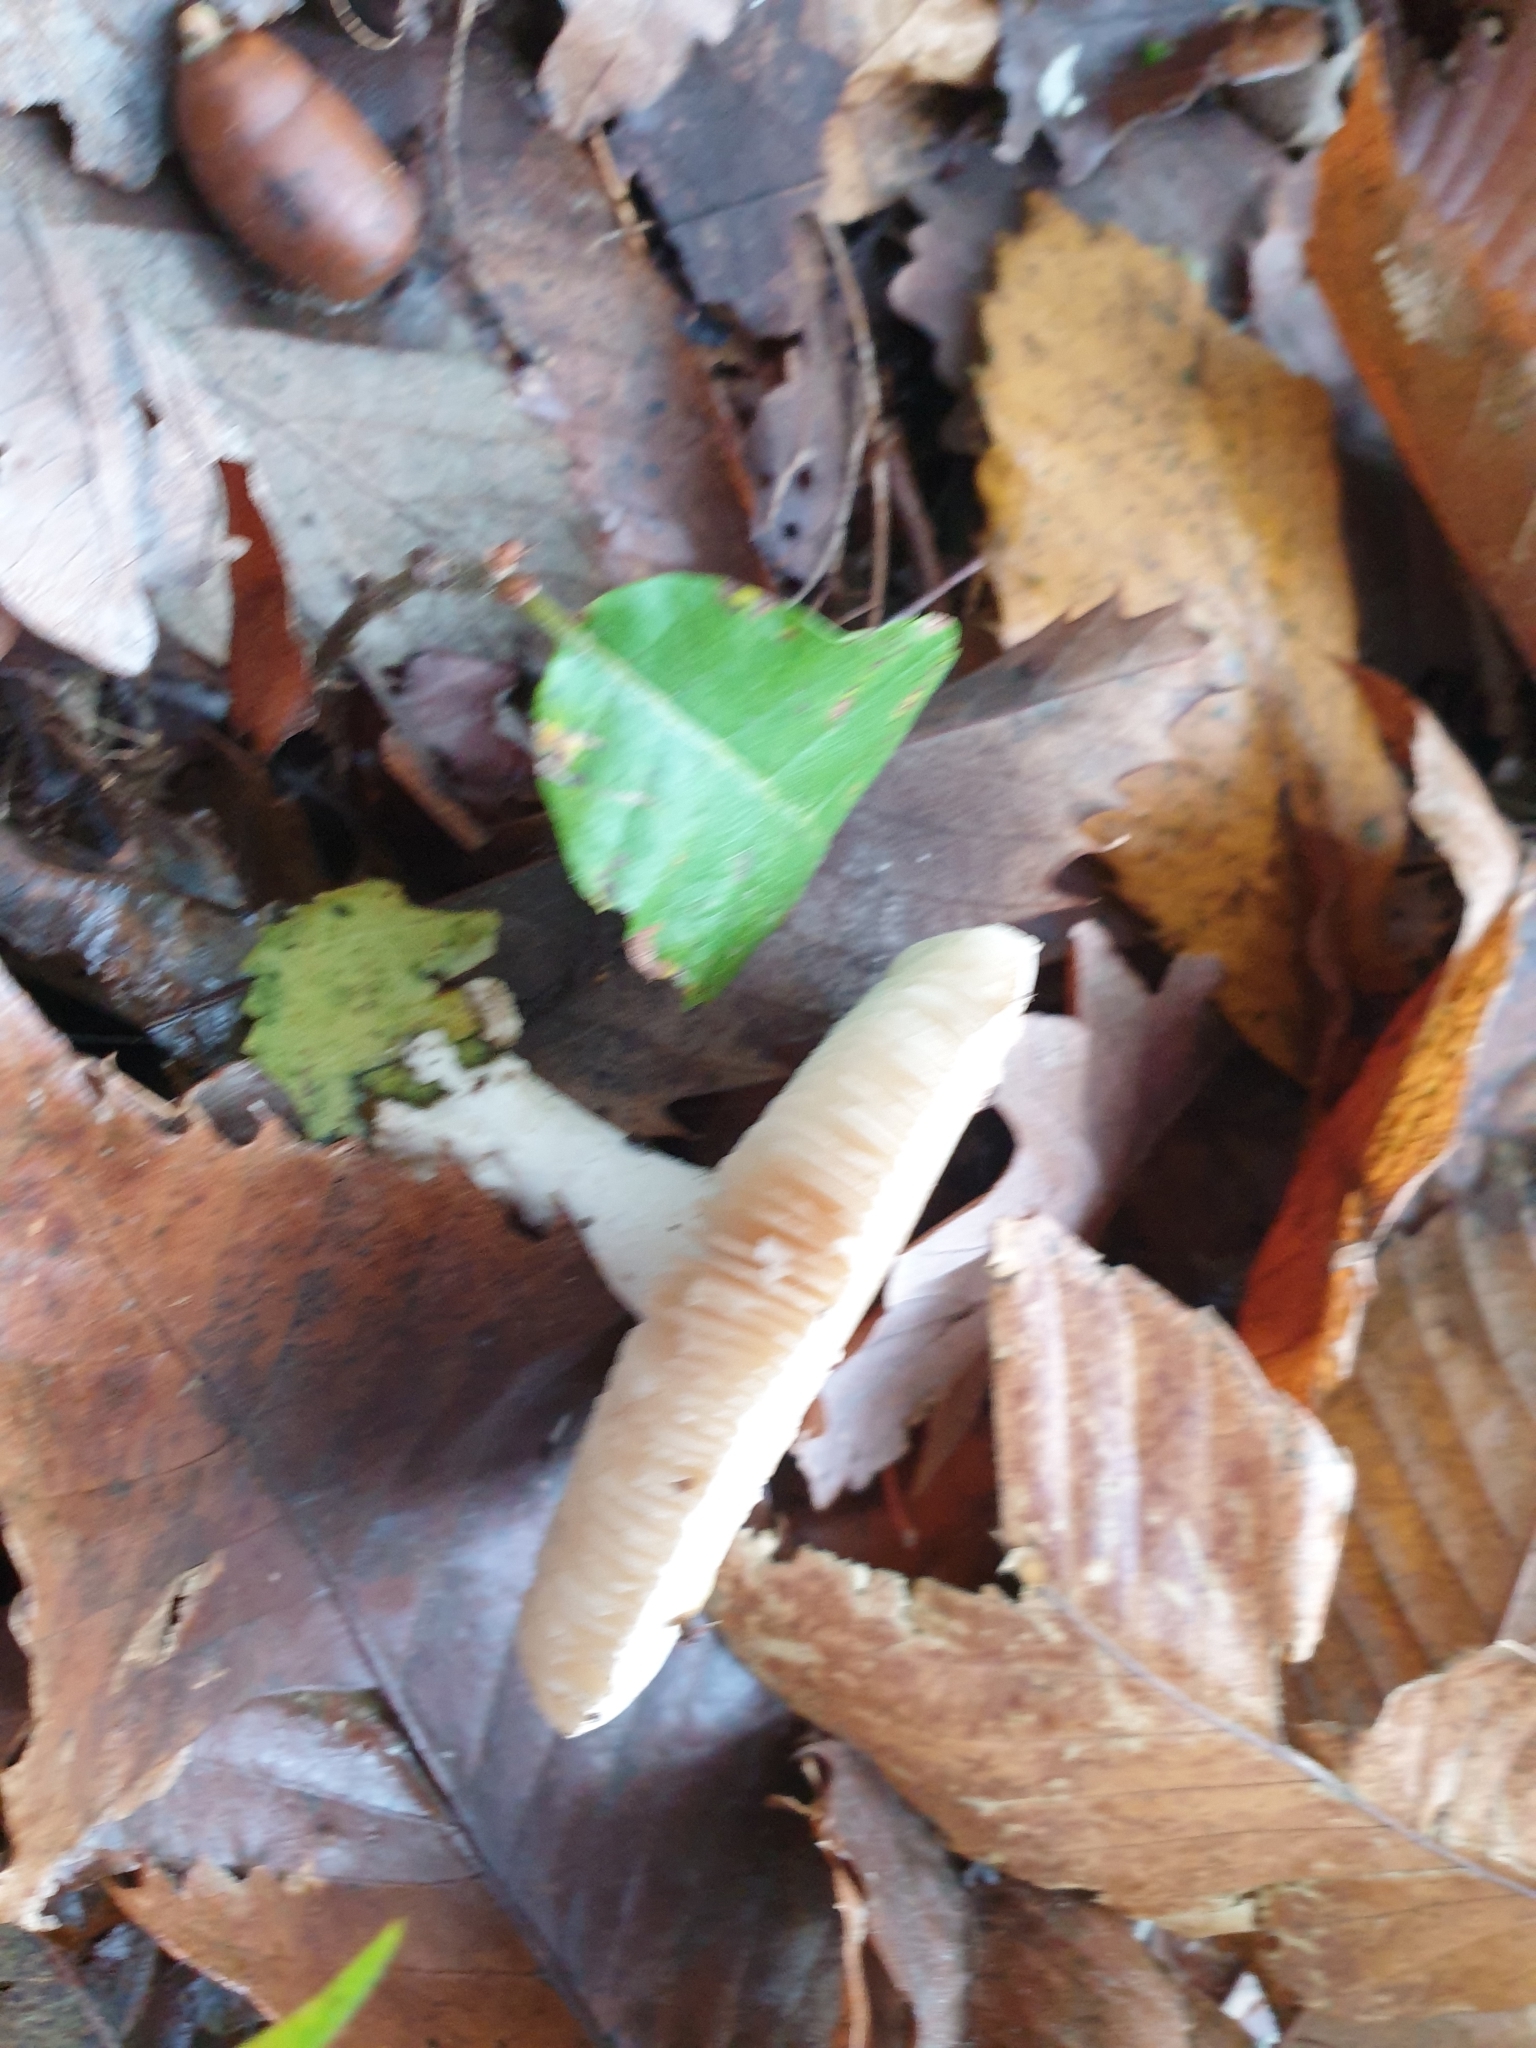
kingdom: Fungi
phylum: Basidiomycota
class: Agaricomycetes
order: Agaricales
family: Amanitaceae
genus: Amanita
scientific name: Amanita citrina
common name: False death-cap
